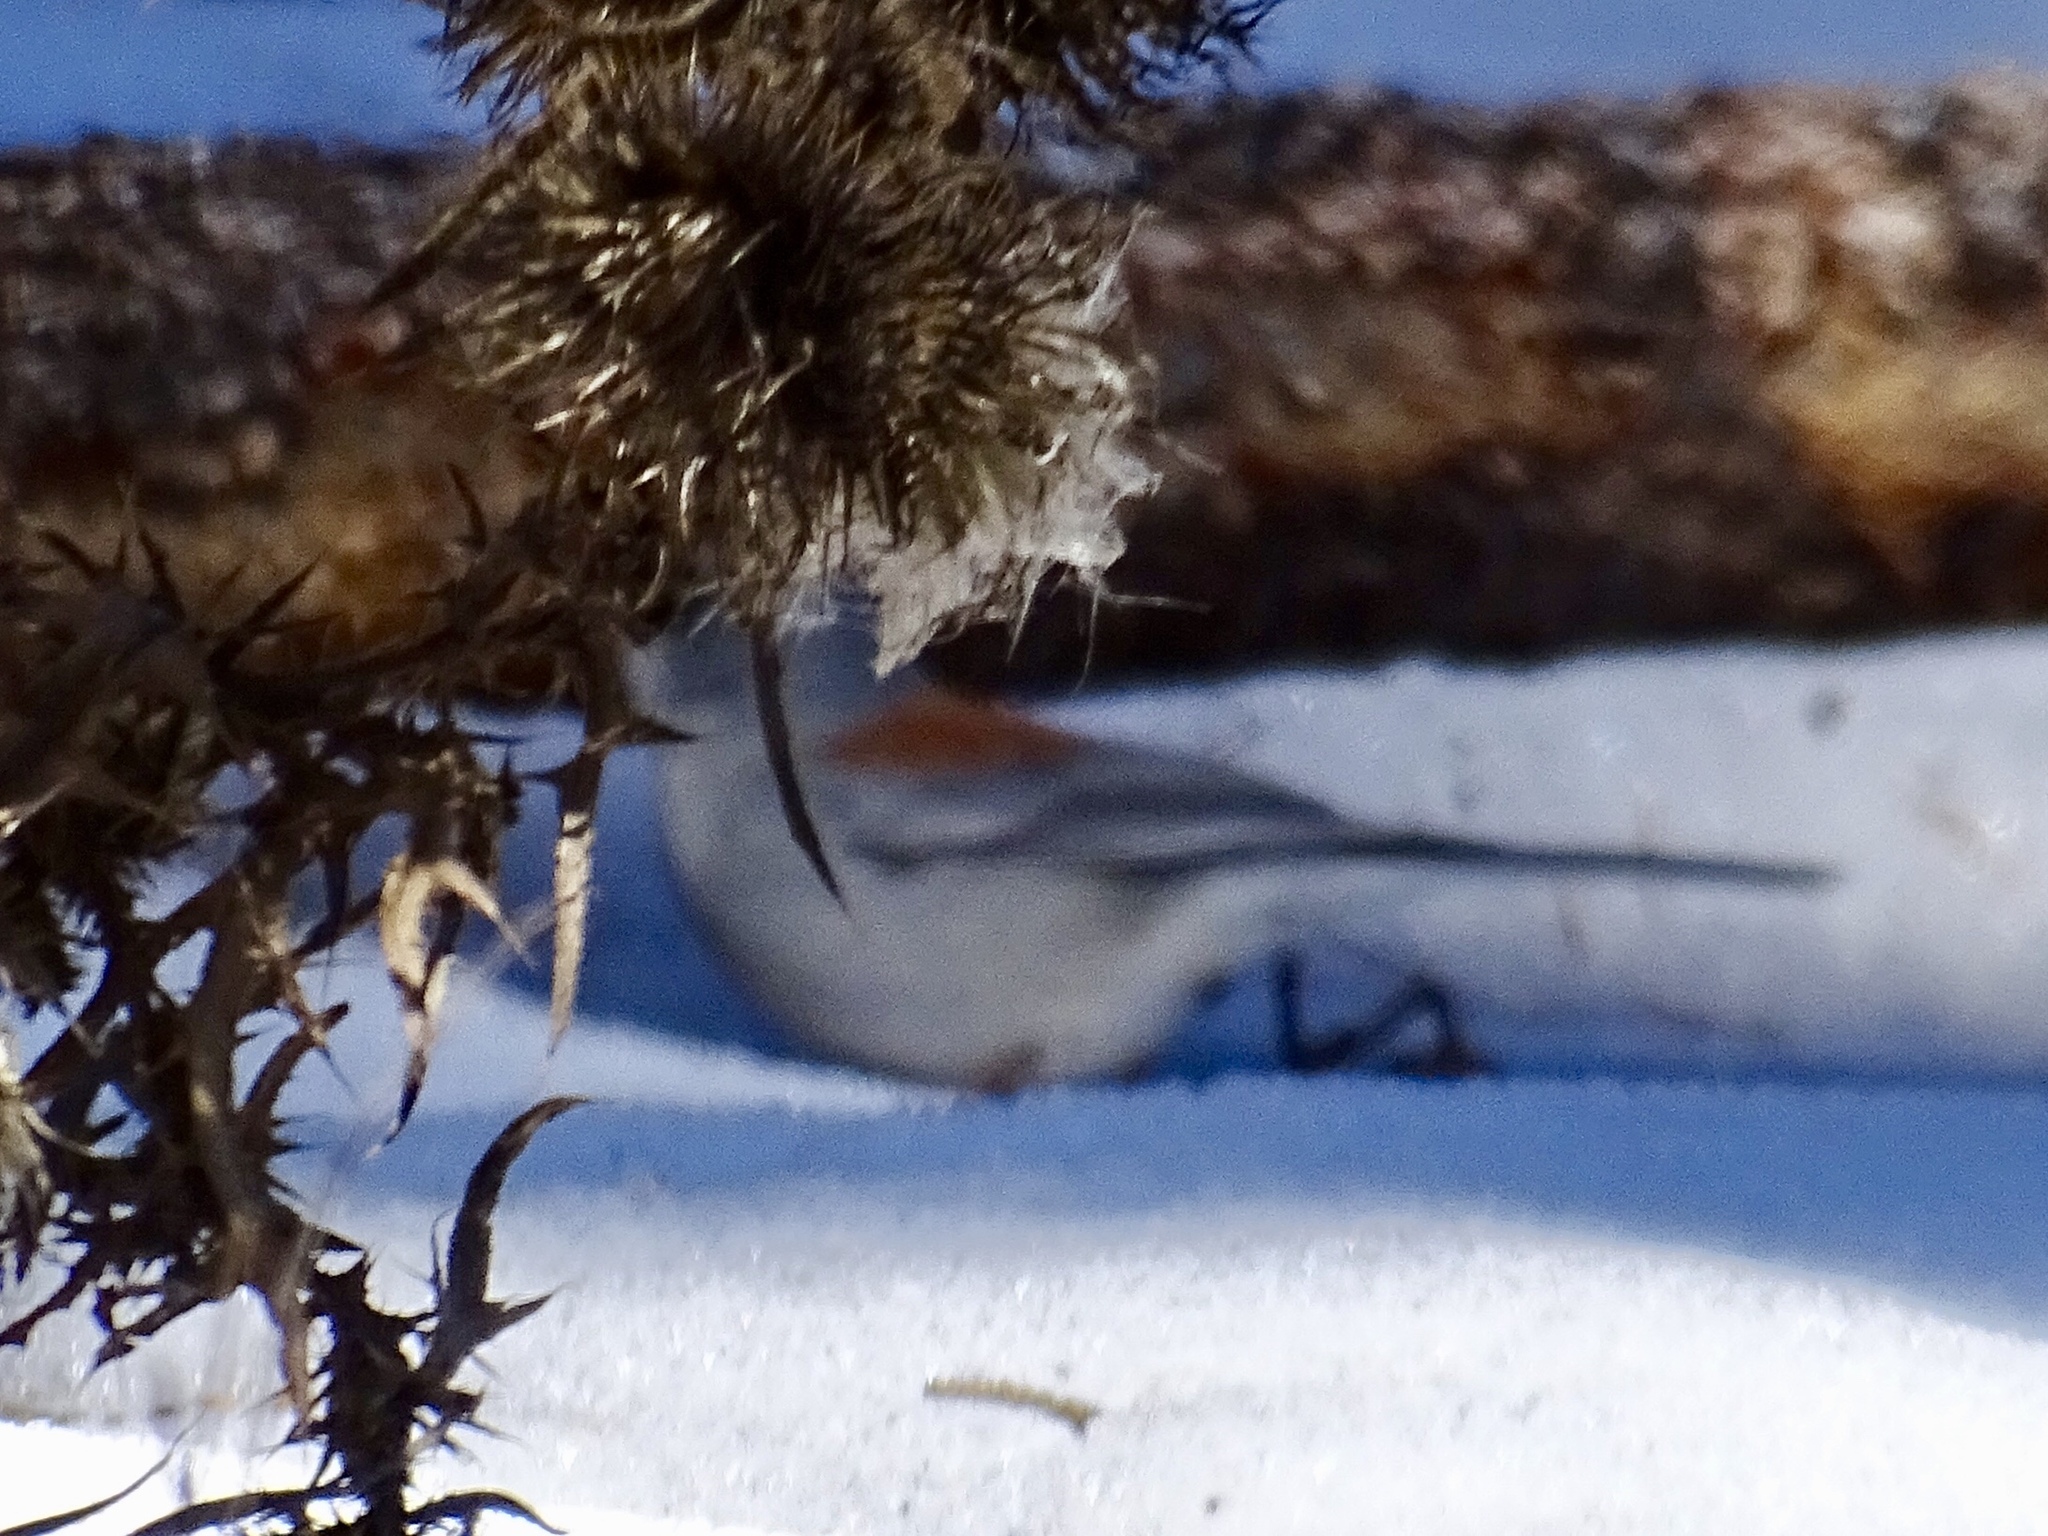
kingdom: Animalia
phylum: Chordata
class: Aves
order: Passeriformes
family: Passerellidae
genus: Junco
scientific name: Junco hyemalis
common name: Dark-eyed junco
